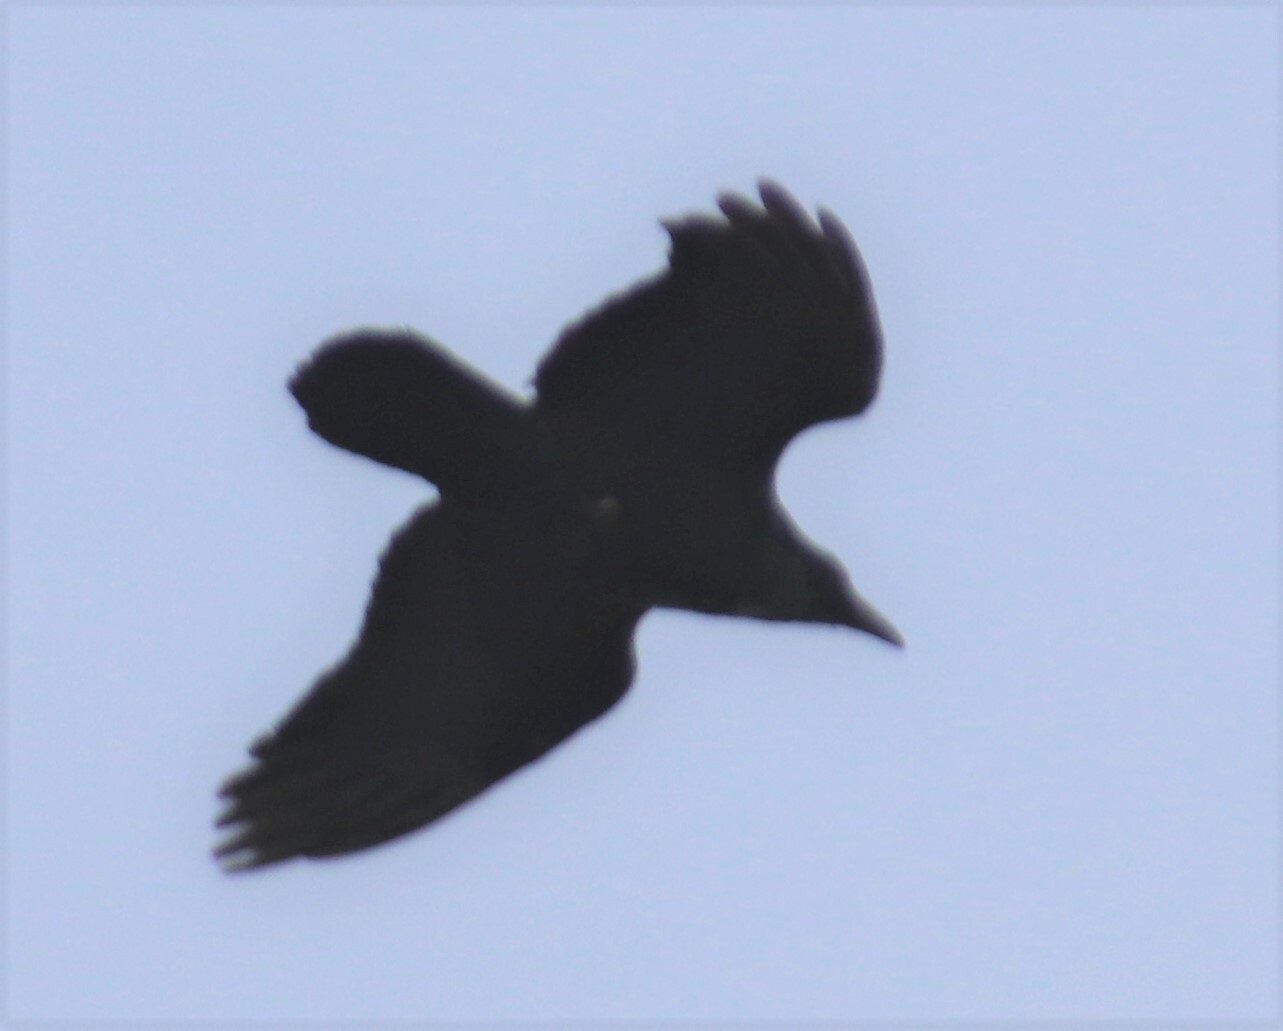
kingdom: Animalia
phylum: Chordata
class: Aves
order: Passeriformes
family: Corvidae
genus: Corvus
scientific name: Corvus corax
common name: Common raven
